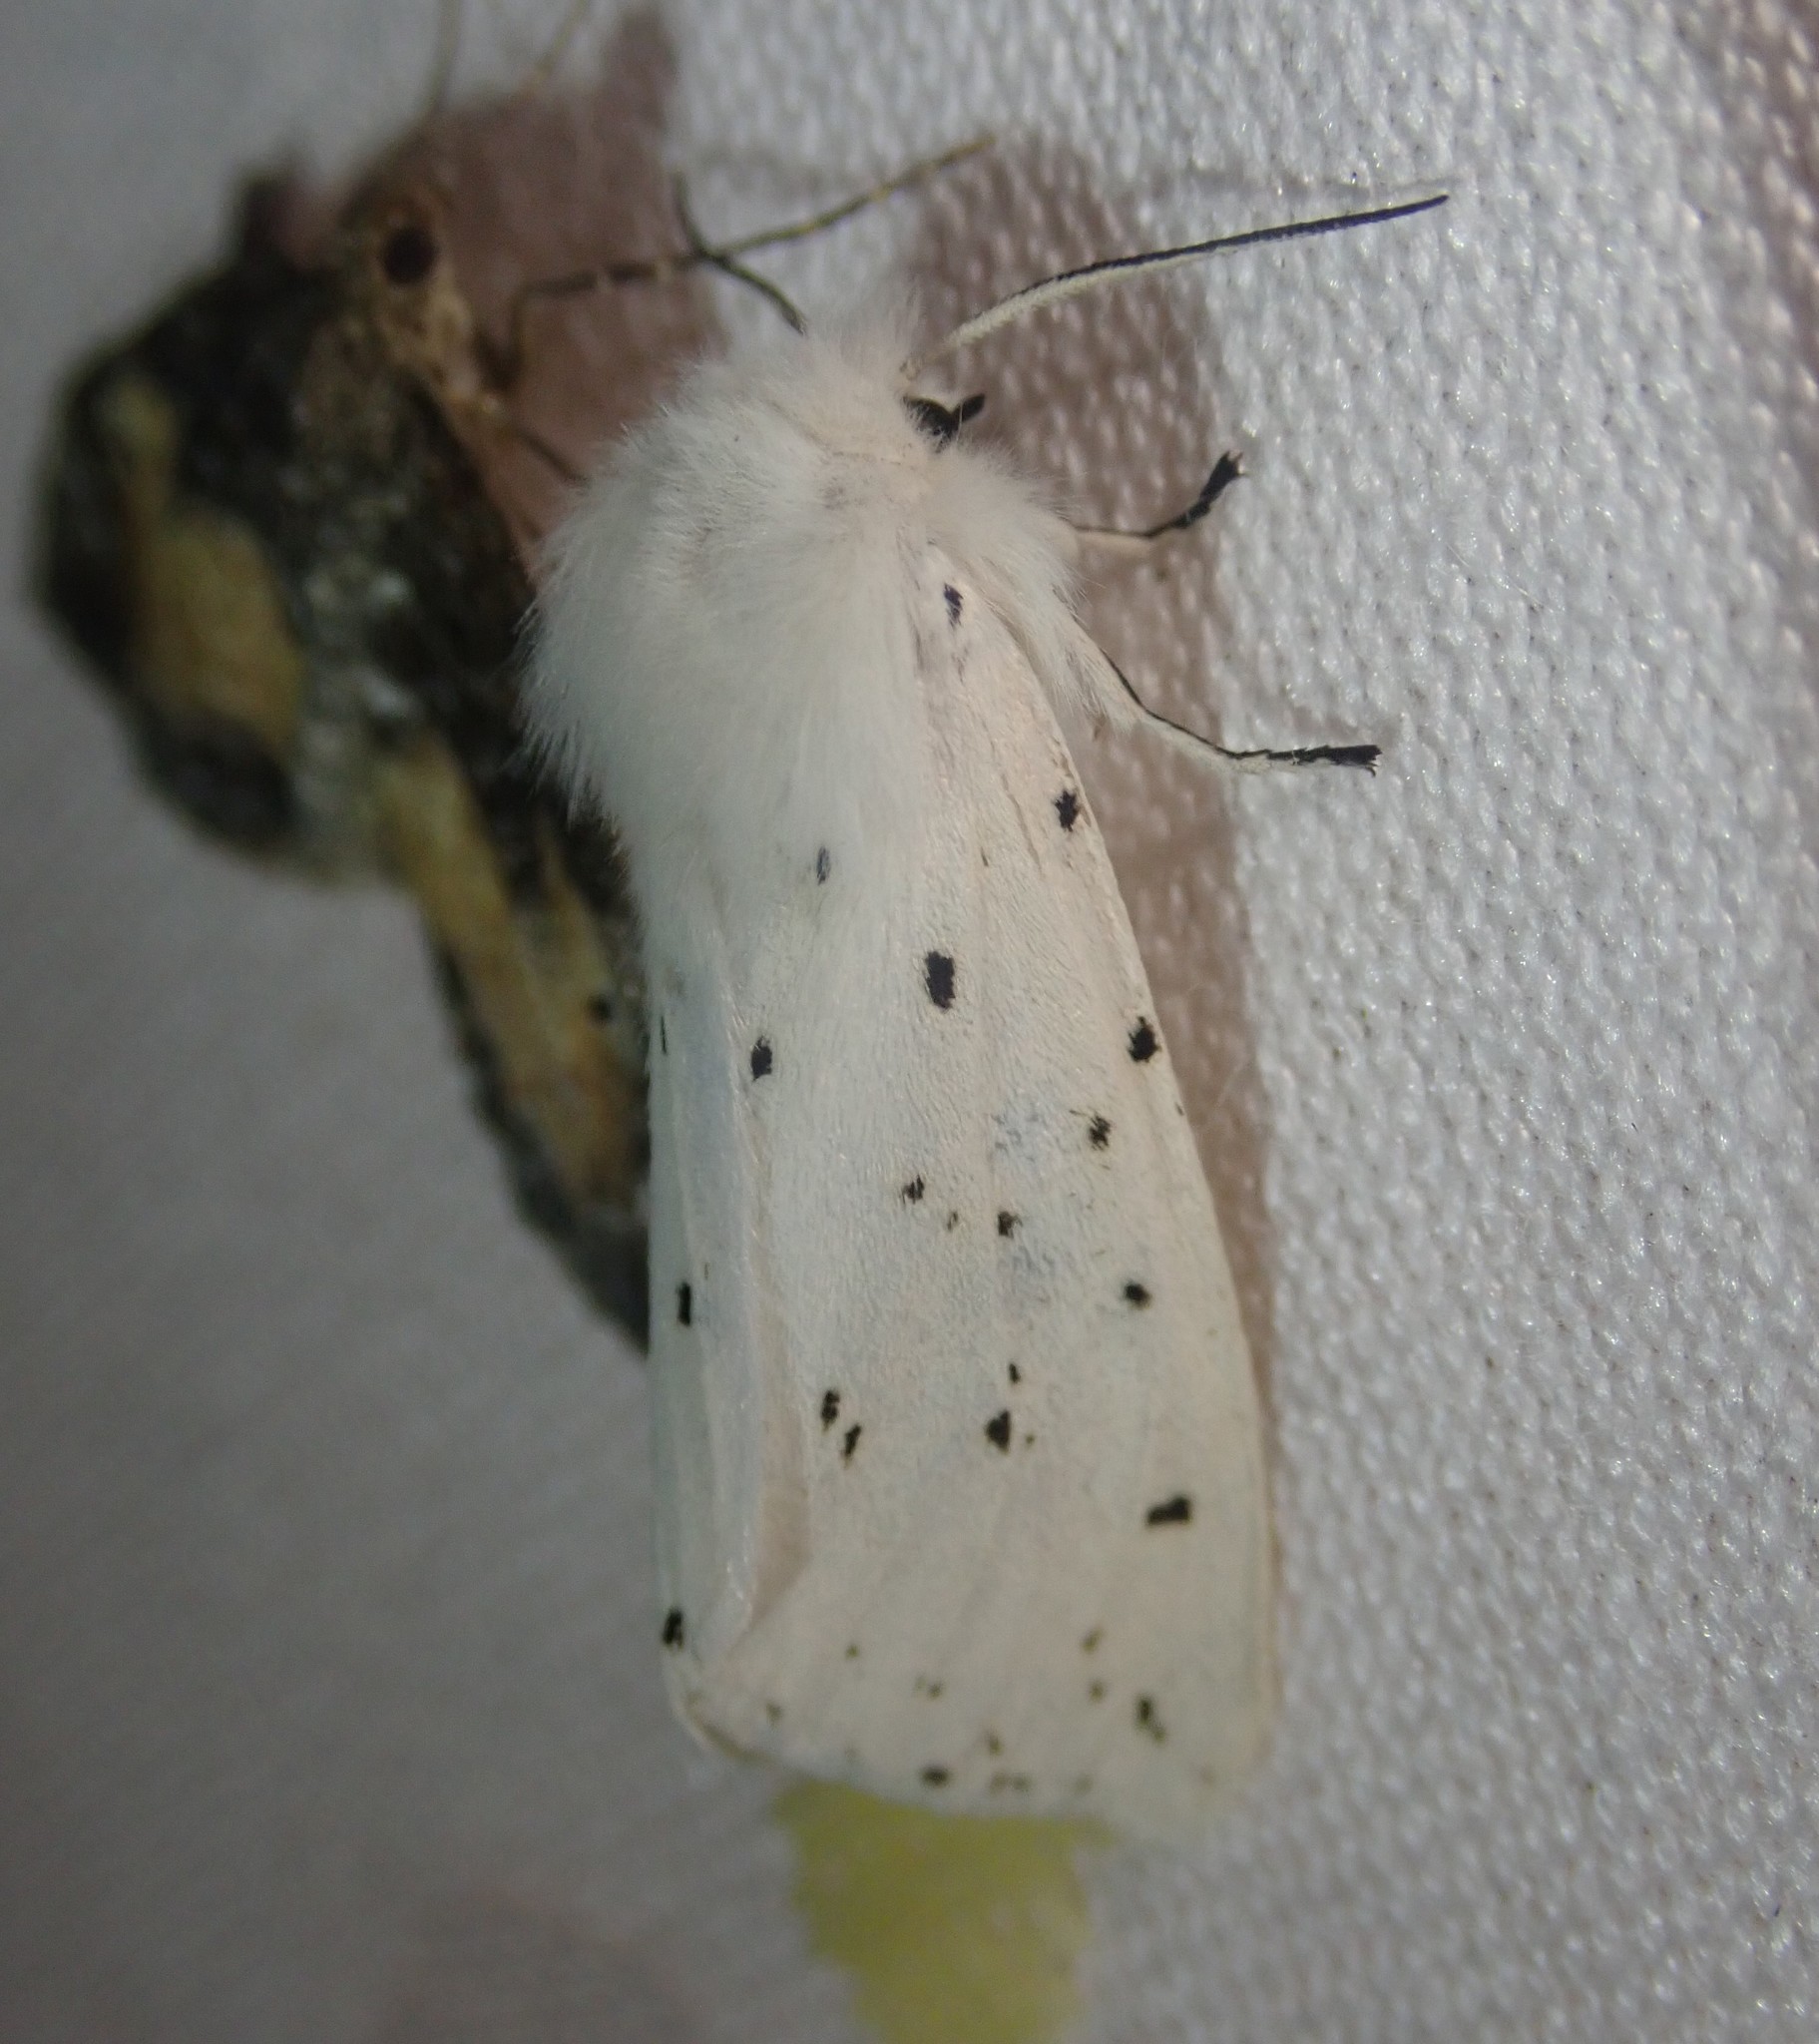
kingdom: Animalia
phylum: Arthropoda
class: Insecta
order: Lepidoptera
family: Erebidae
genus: Spilosoma
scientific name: Spilosoma lubricipeda
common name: White ermine
